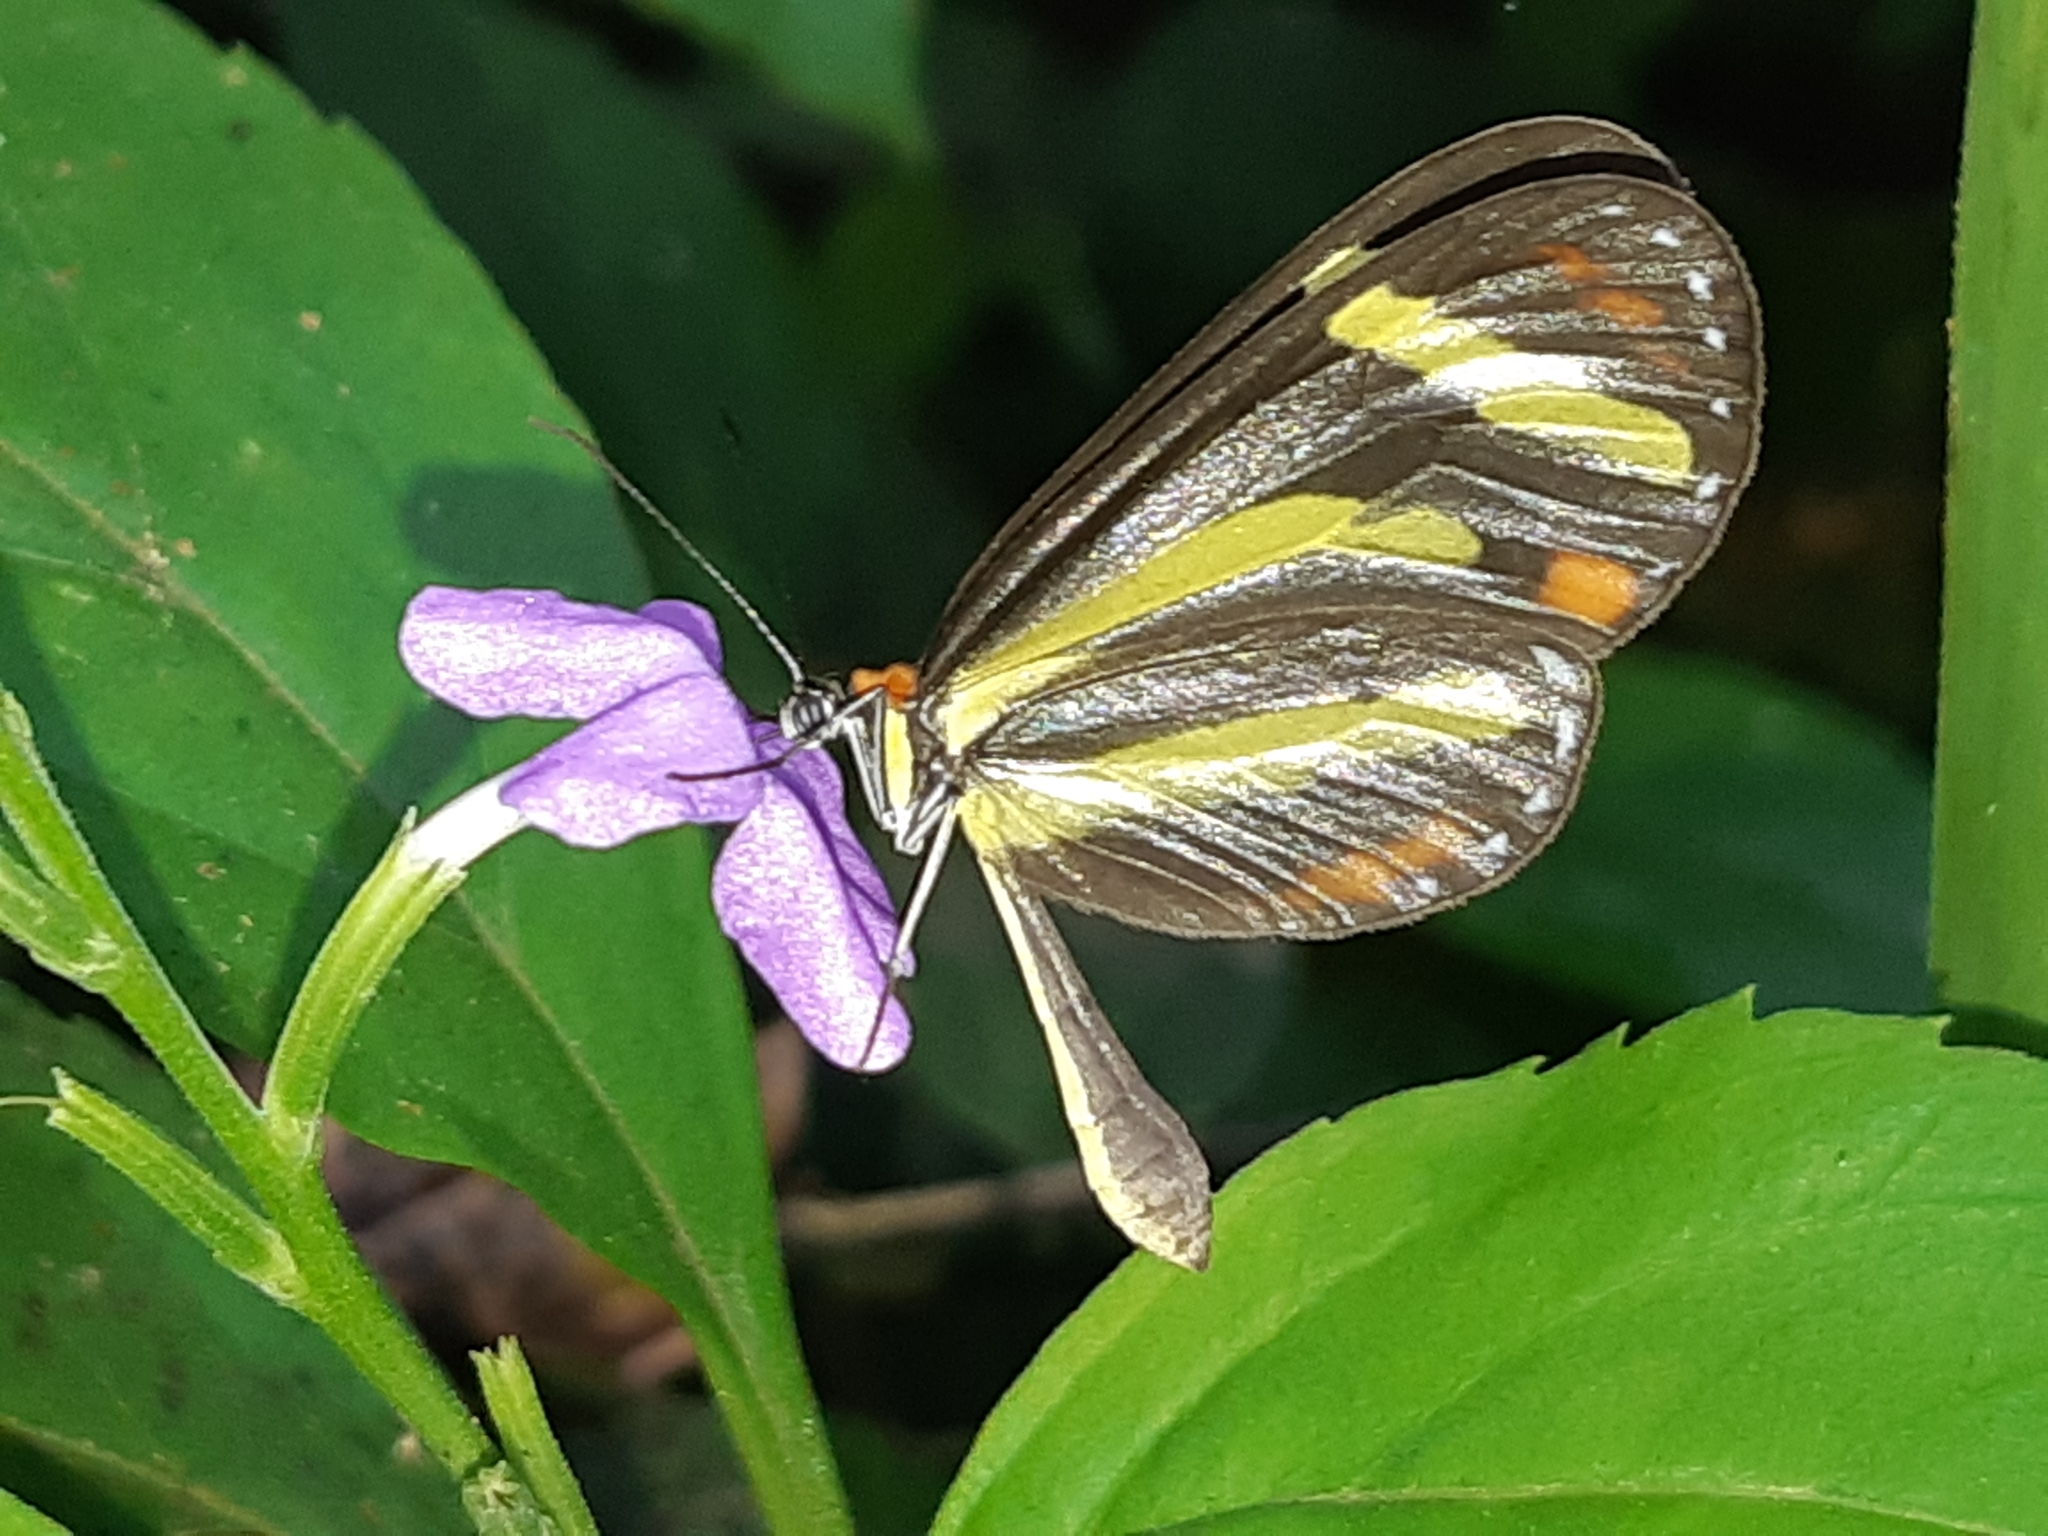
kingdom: Animalia
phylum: Arthropoda
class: Insecta
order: Lepidoptera
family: Nymphalidae
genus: Scada
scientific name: Scada
